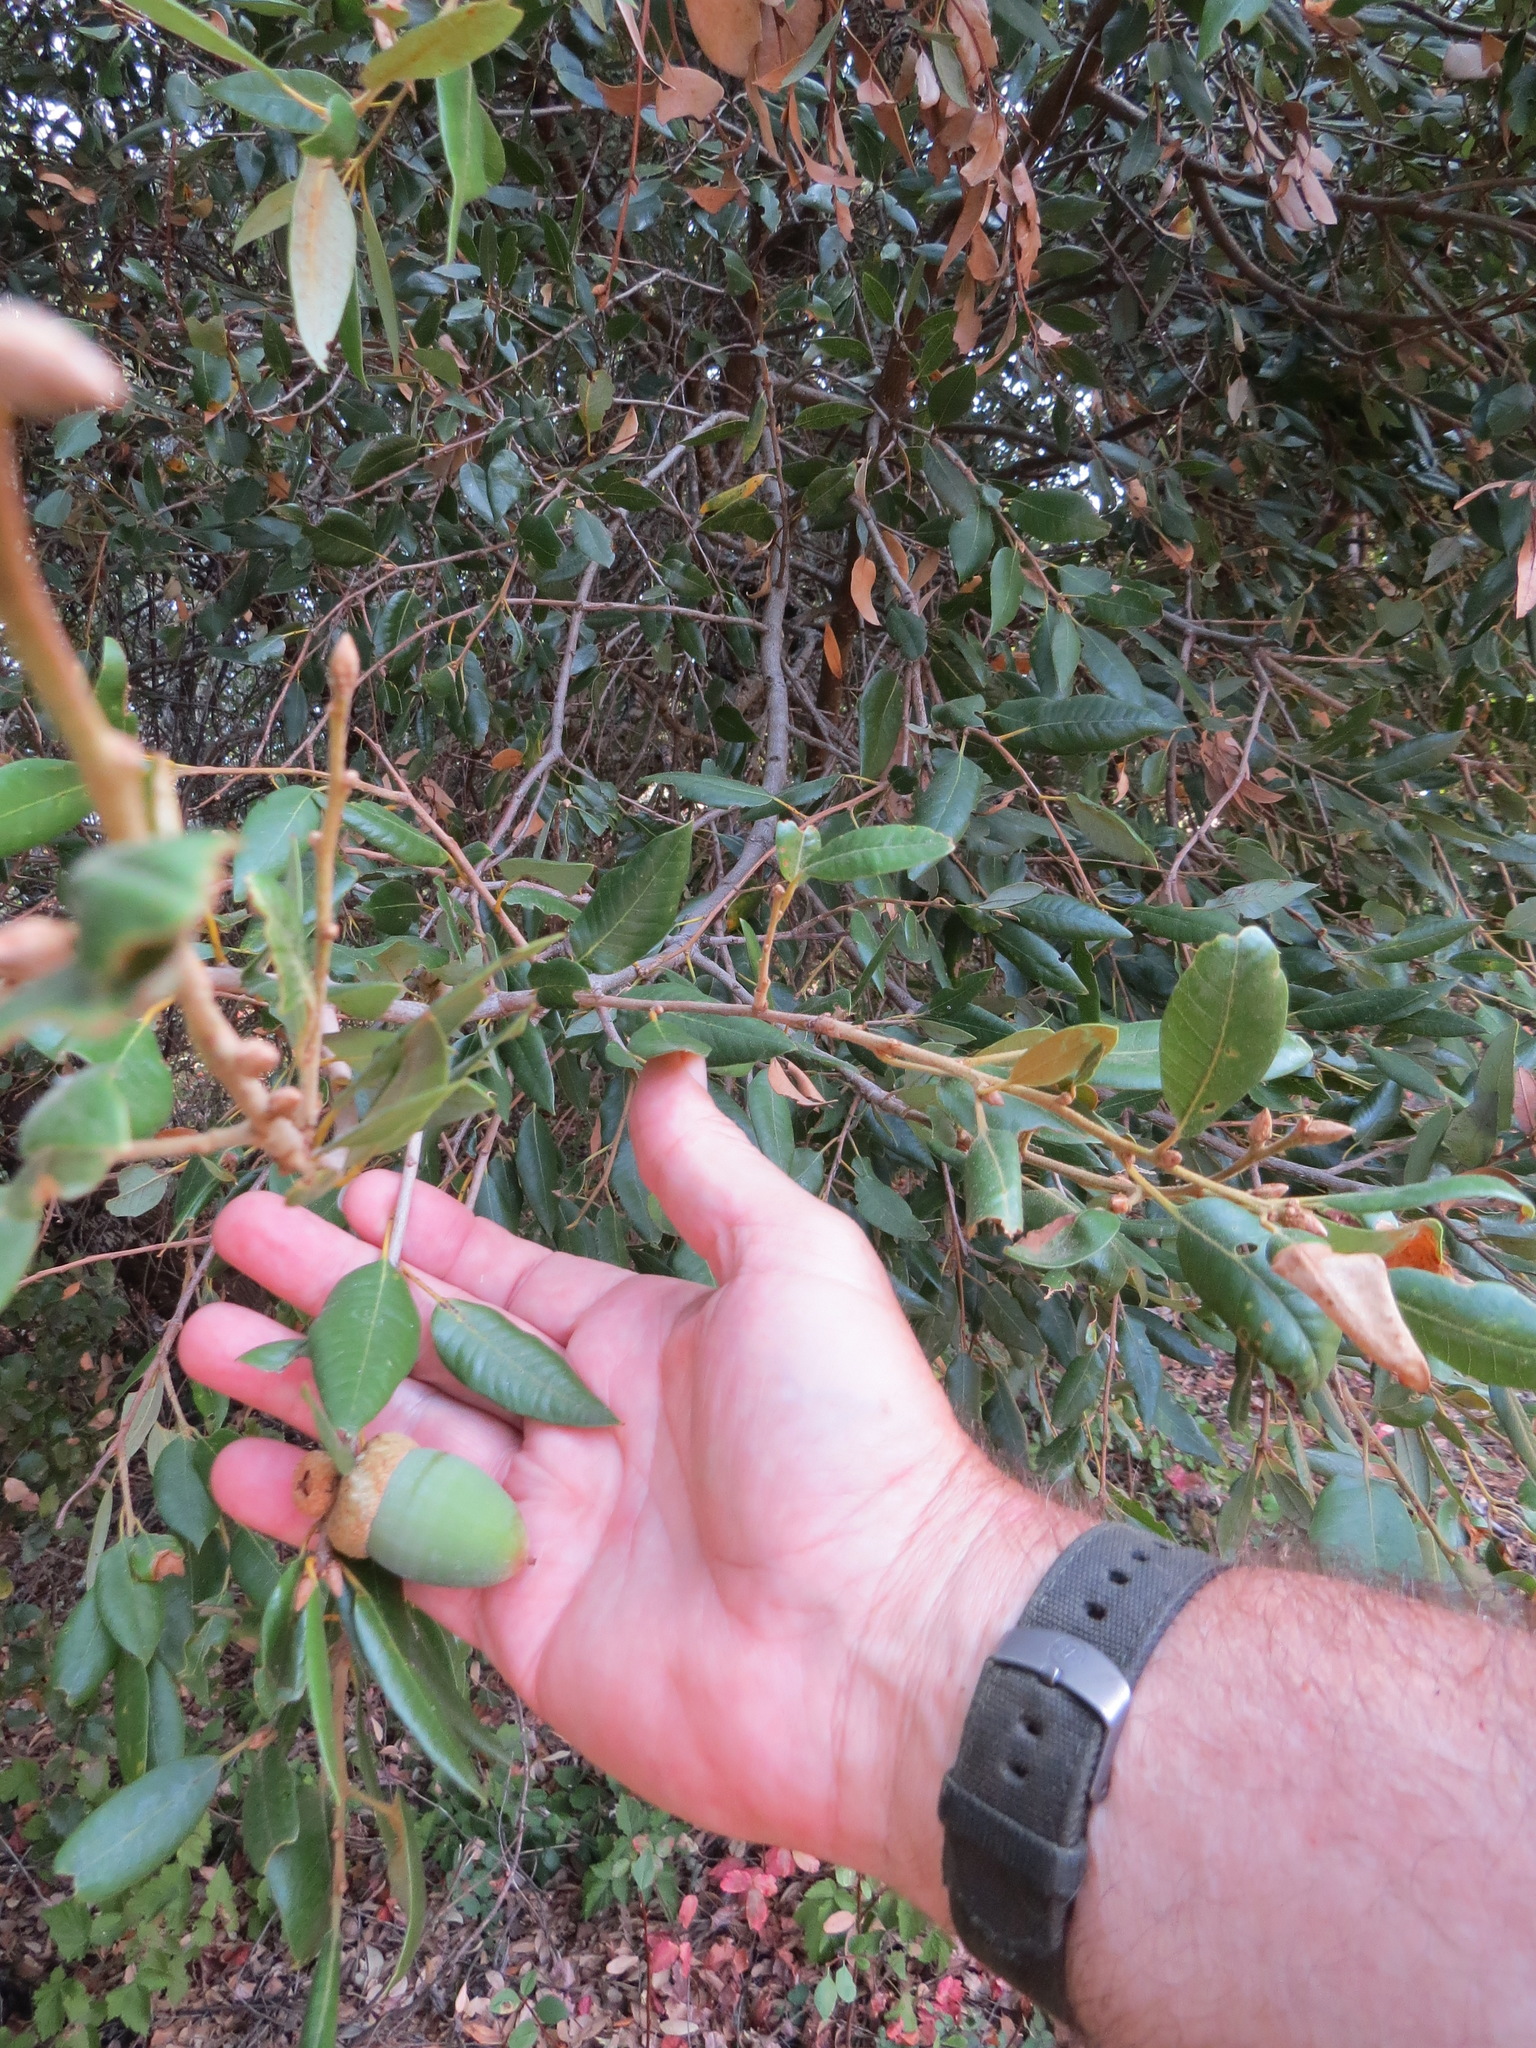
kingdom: Plantae
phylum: Tracheophyta
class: Magnoliopsida
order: Fagales
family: Fagaceae
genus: Quercus
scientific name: Quercus chrysolepis
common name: Canyon live oak
